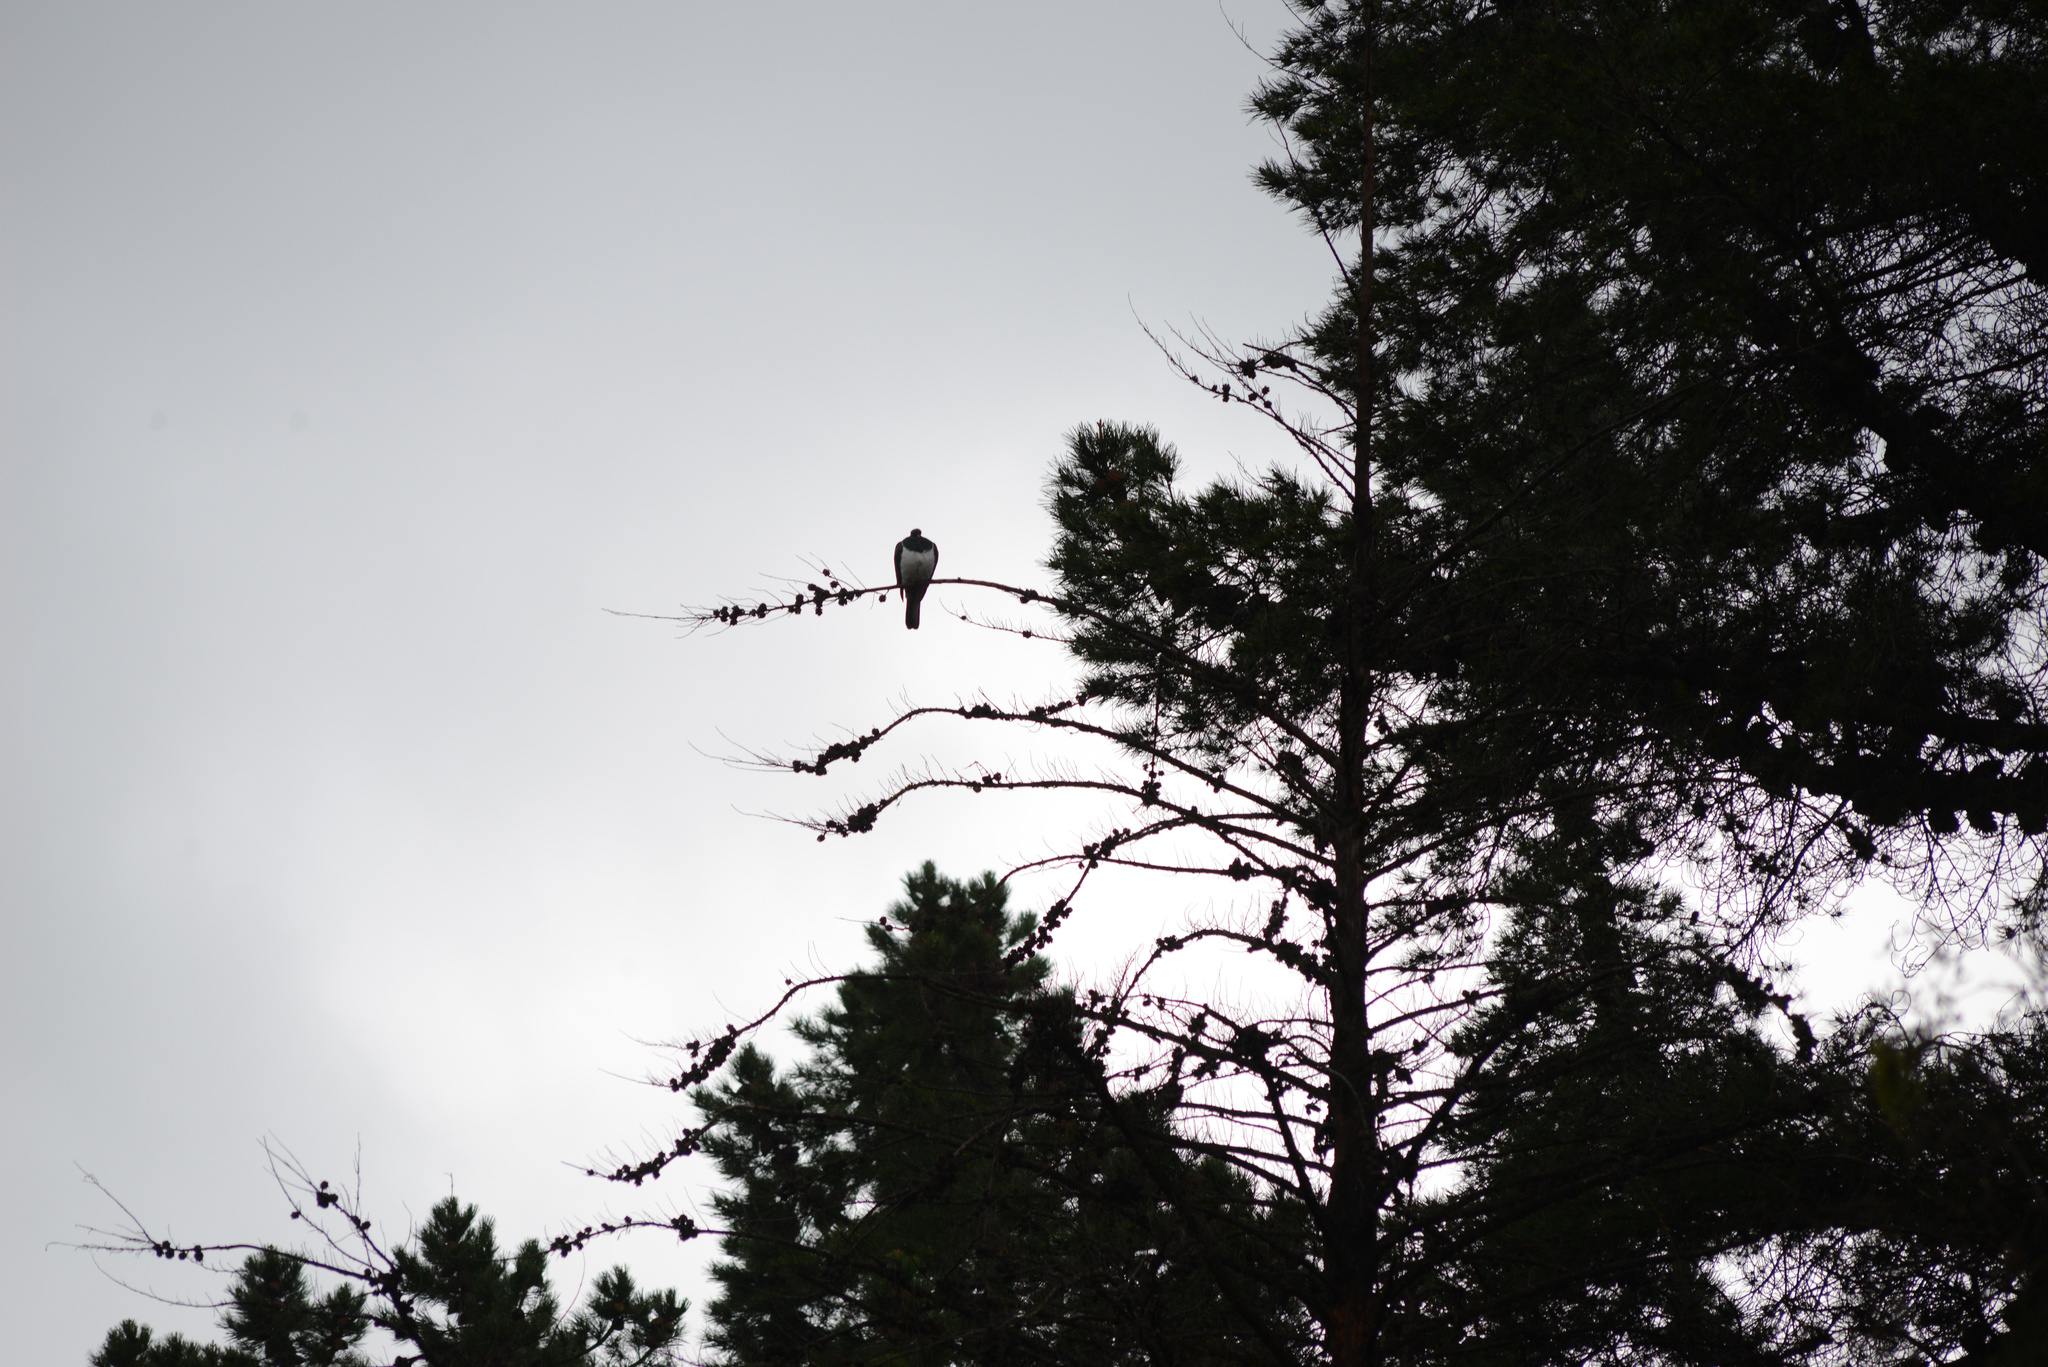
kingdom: Animalia
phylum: Chordata
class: Aves
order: Columbiformes
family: Columbidae
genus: Hemiphaga
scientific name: Hemiphaga novaeseelandiae
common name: New zealand pigeon
